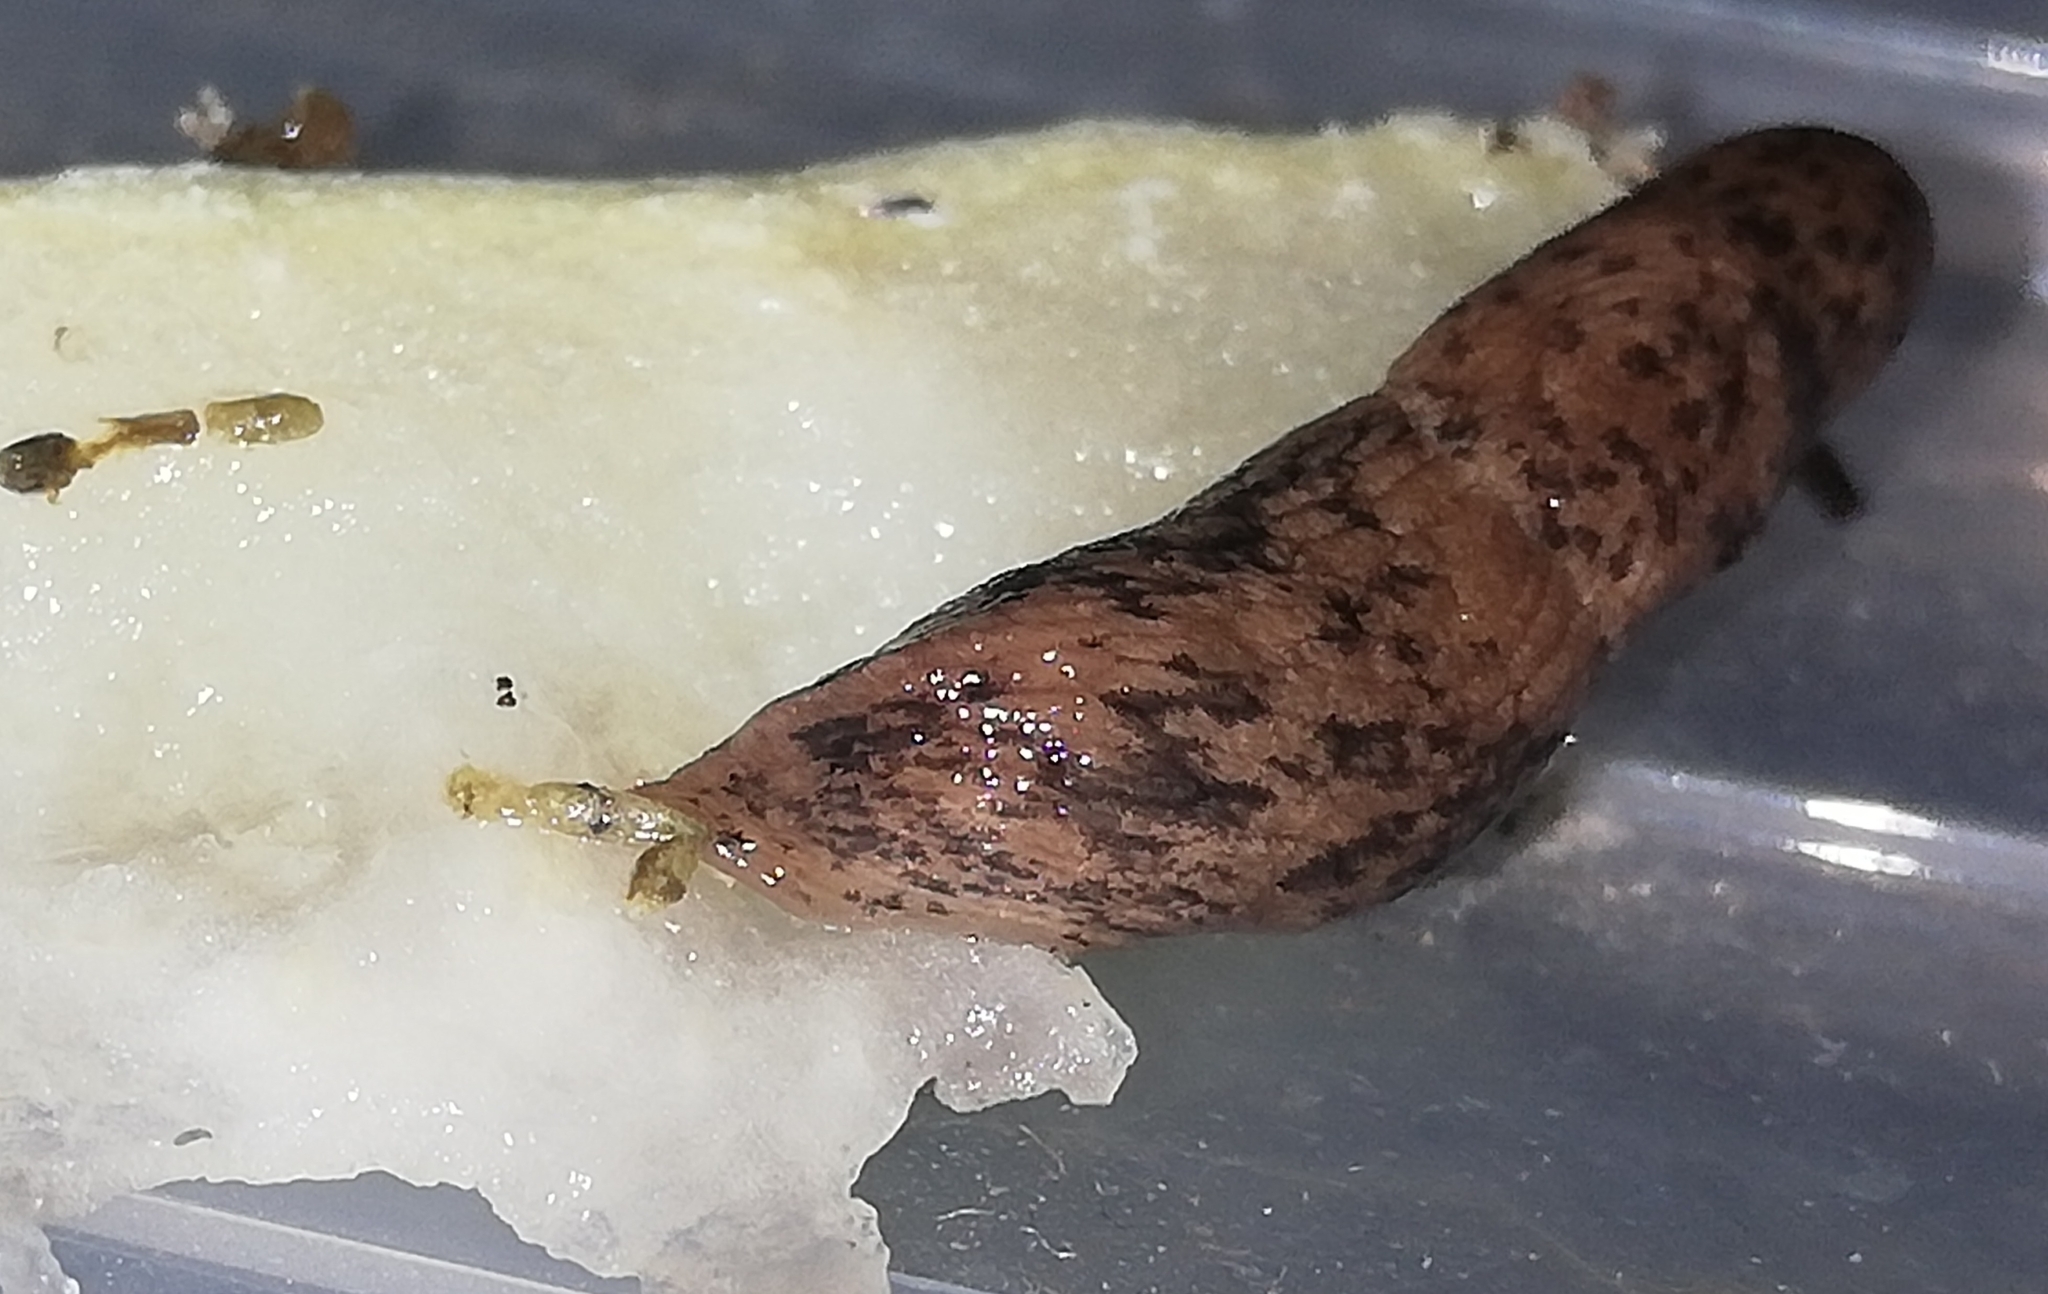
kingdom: Animalia
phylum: Mollusca
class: Gastropoda
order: Stylommatophora
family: Agriolimacidae
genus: Deroceras
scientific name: Deroceras reticulatum
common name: Gray field slug
